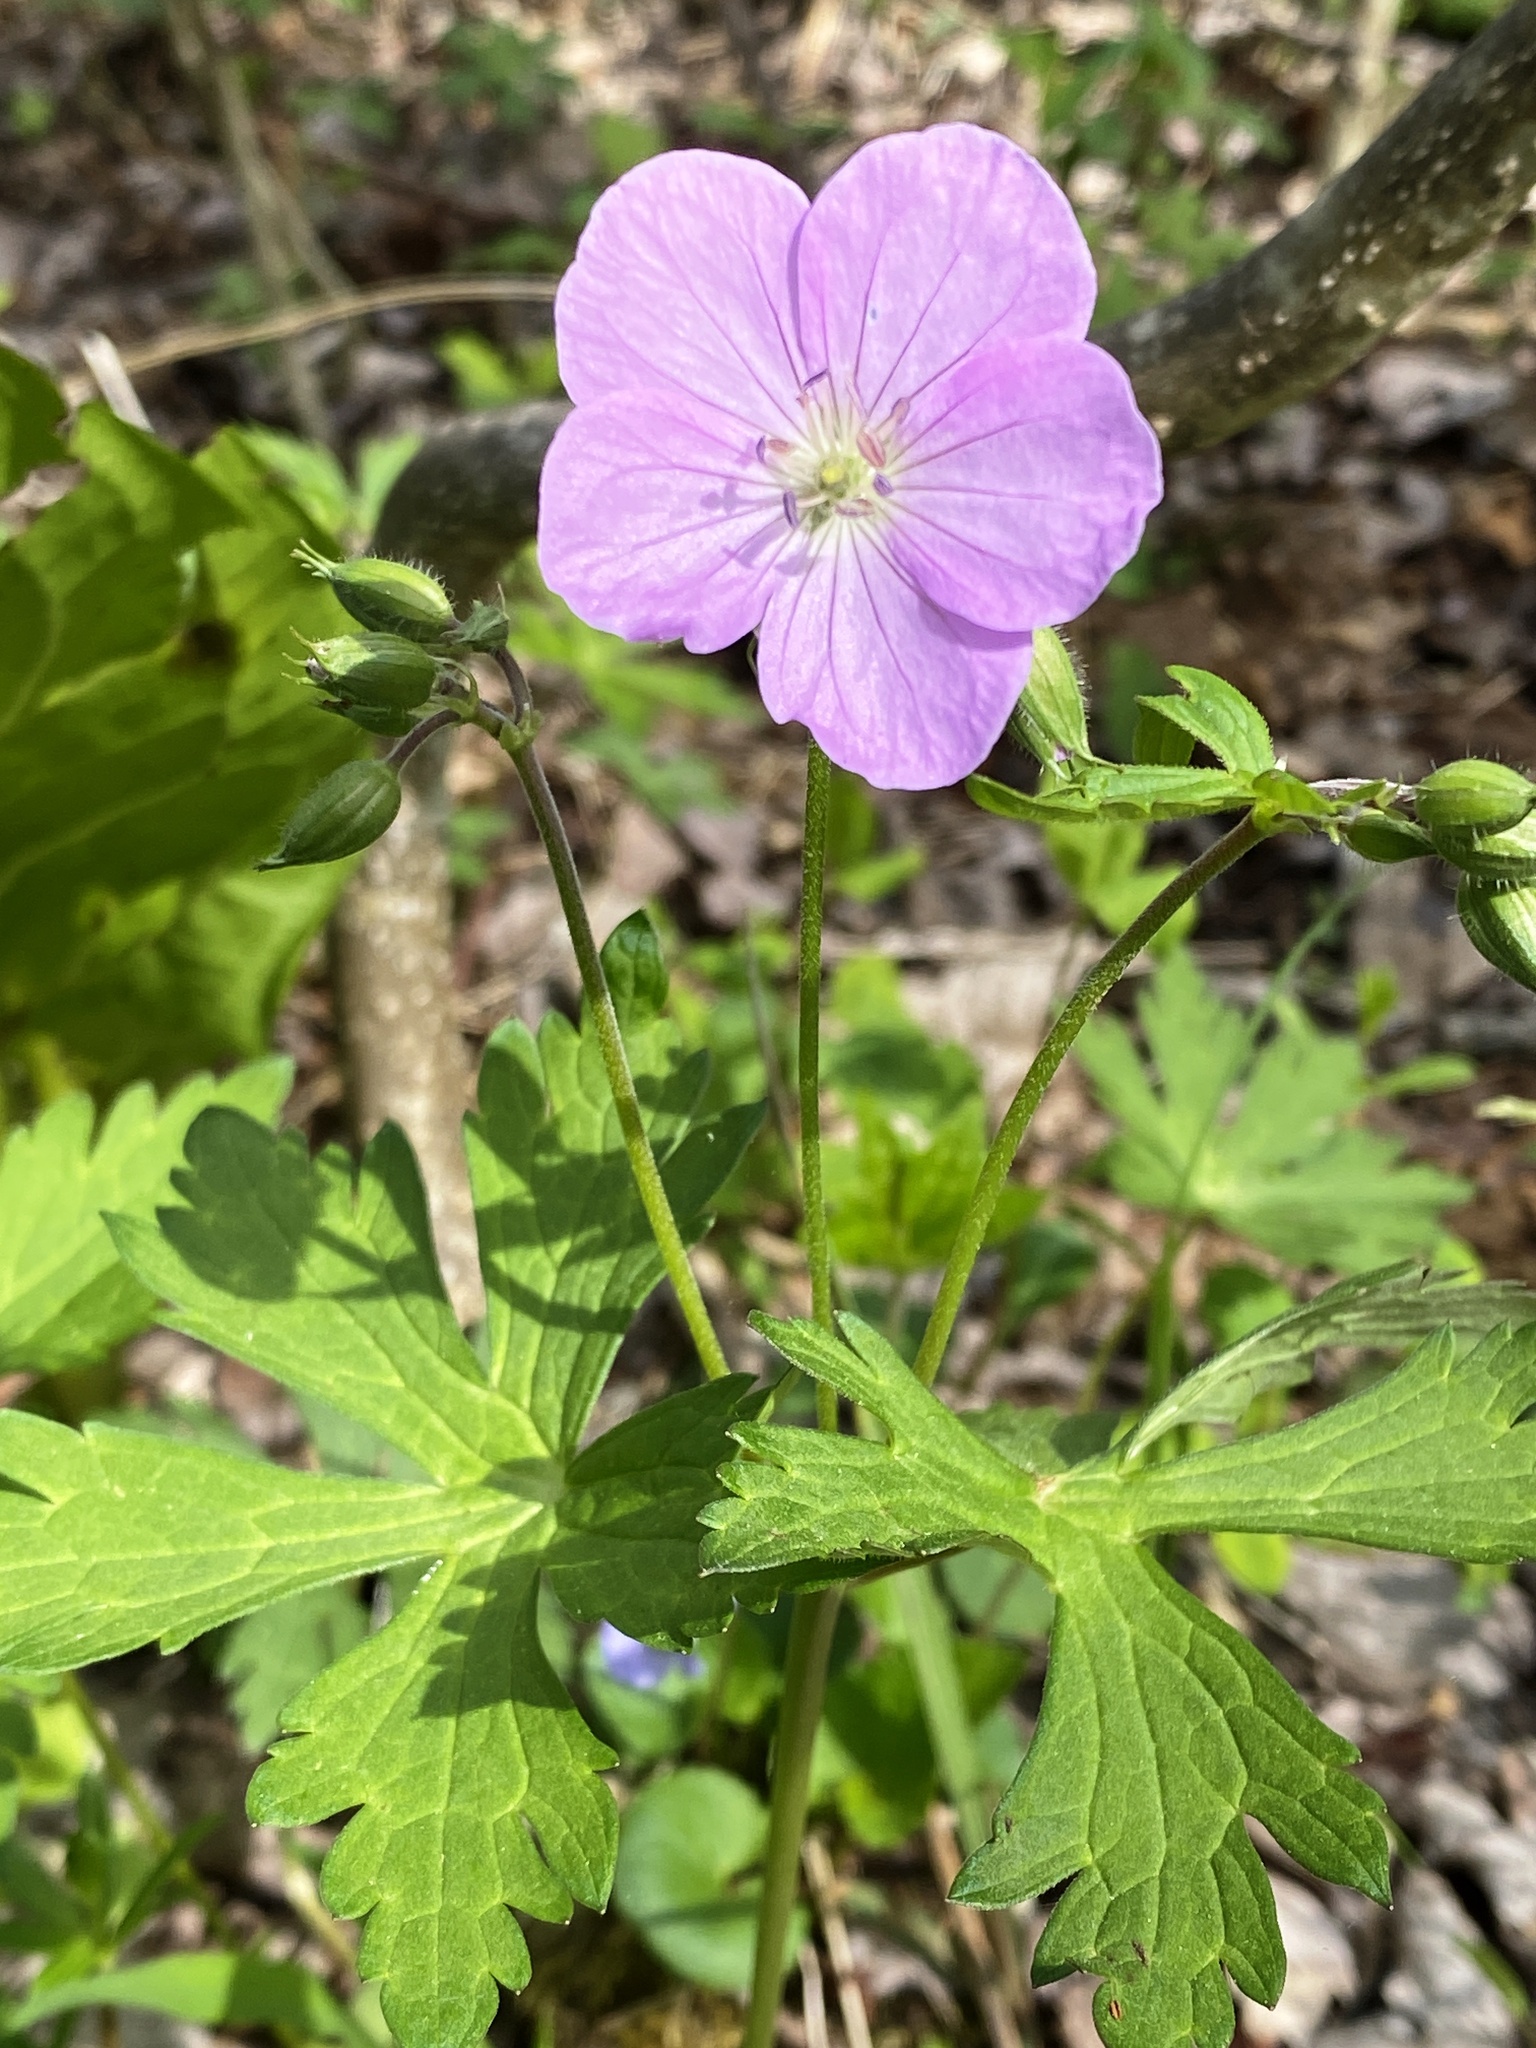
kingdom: Plantae
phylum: Tracheophyta
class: Magnoliopsida
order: Geraniales
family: Geraniaceae
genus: Geranium
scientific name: Geranium maculatum
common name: Spotted geranium
